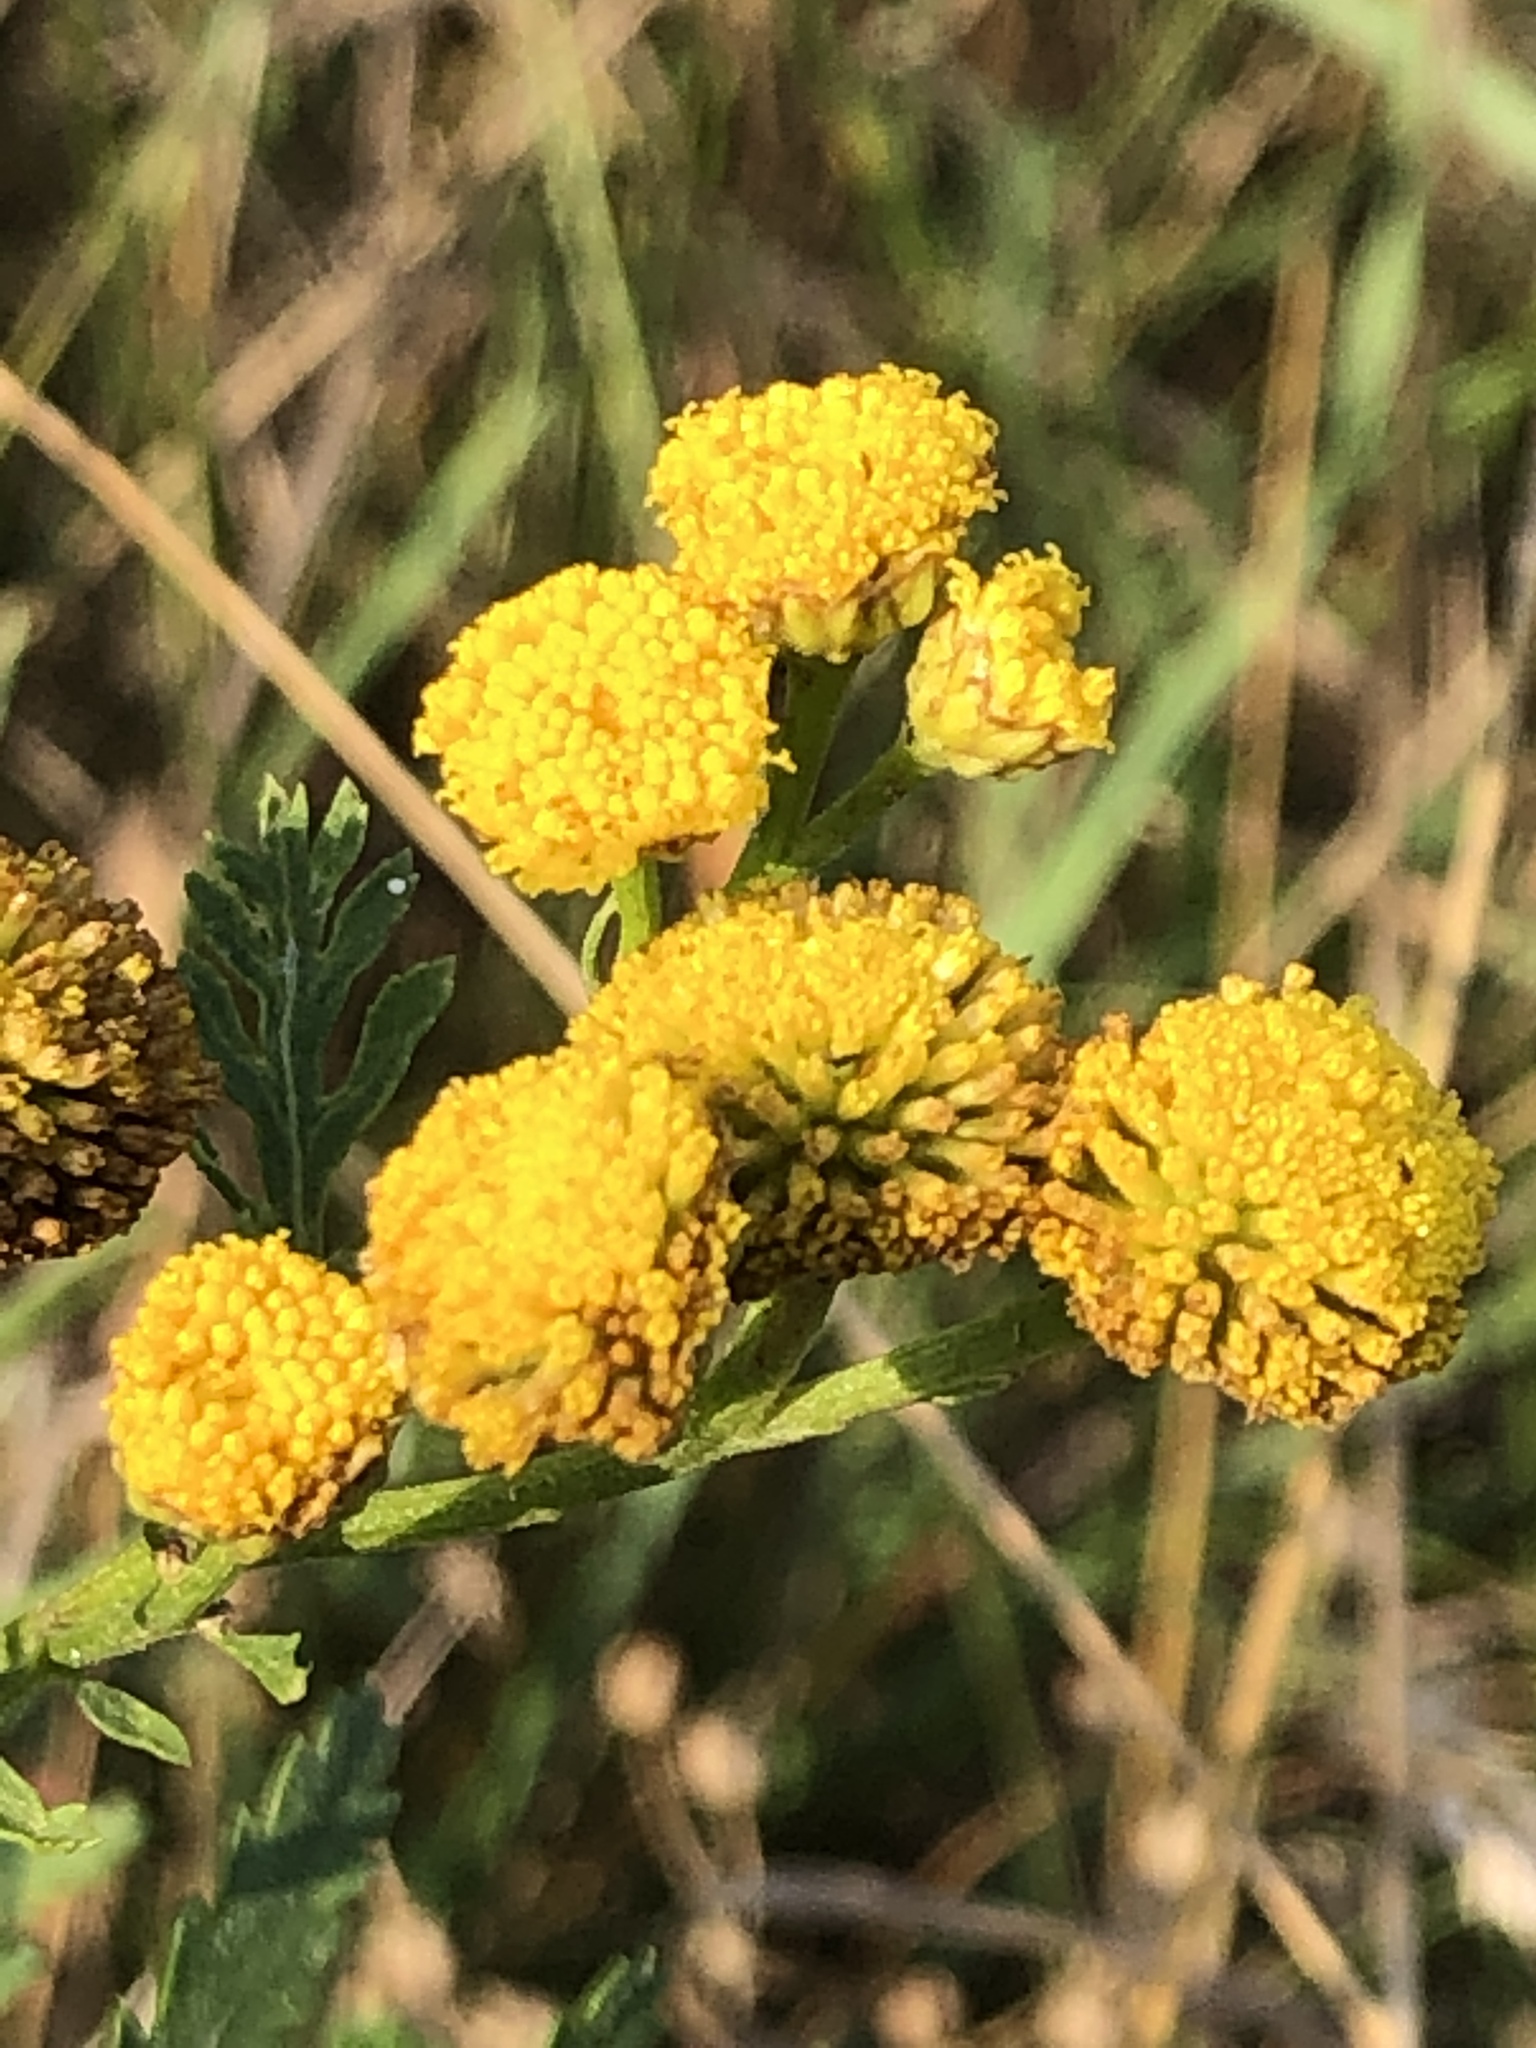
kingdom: Plantae
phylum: Tracheophyta
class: Magnoliopsida
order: Asterales
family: Asteraceae
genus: Tanacetum
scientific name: Tanacetum vulgare
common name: Common tansy
